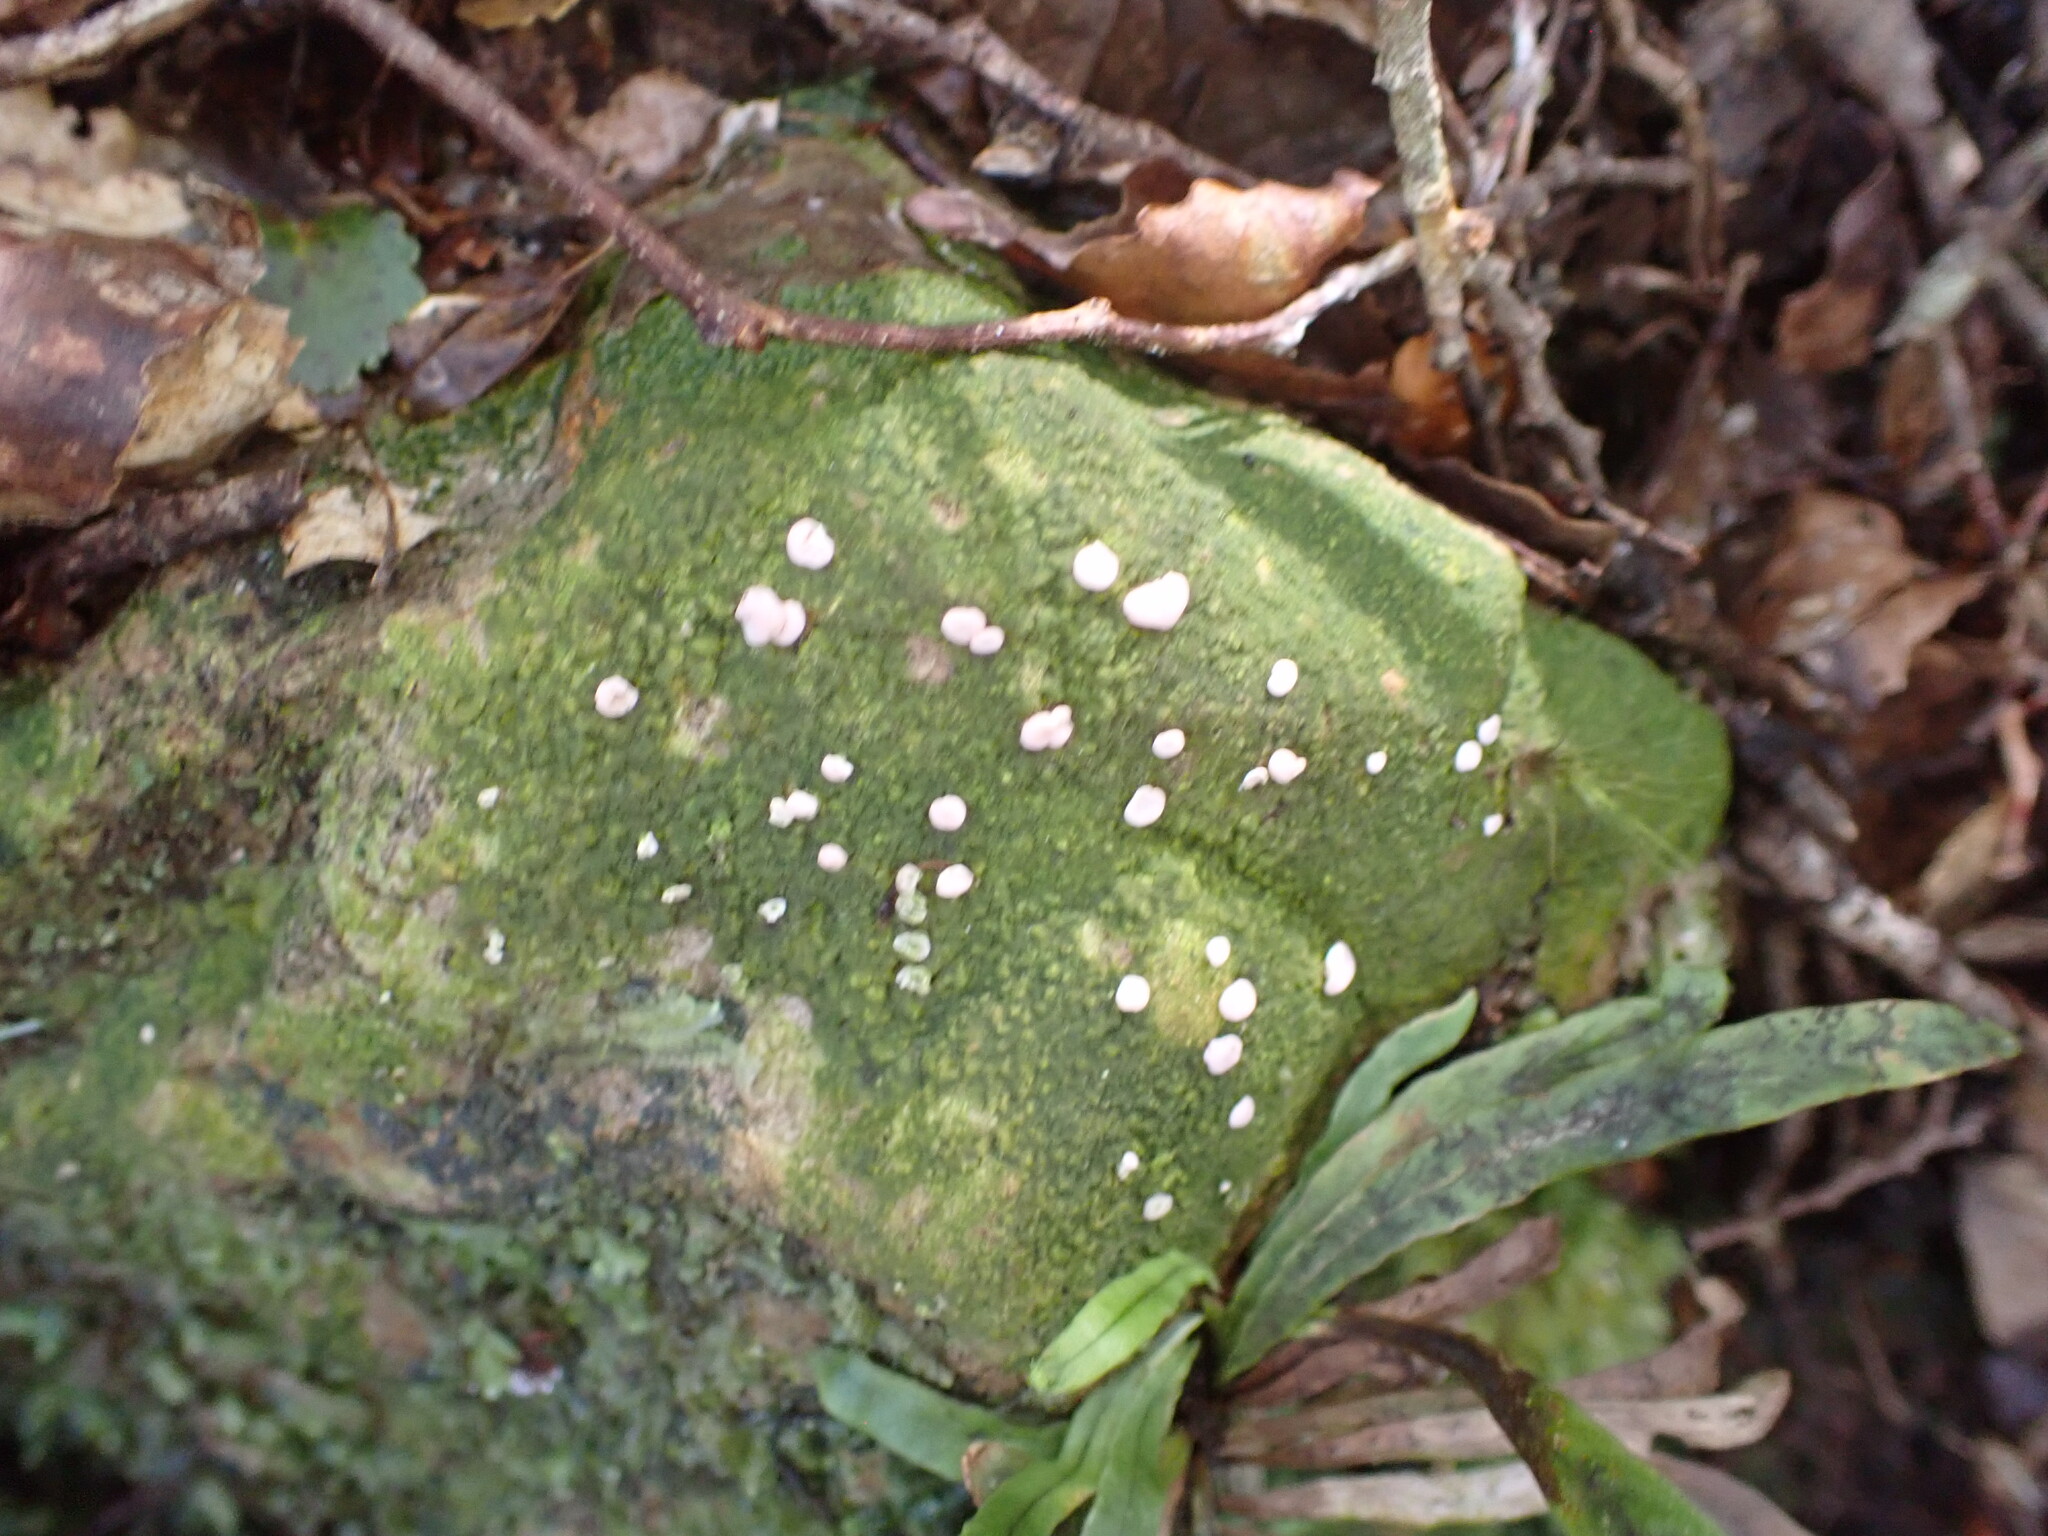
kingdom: Fungi
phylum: Ascomycota
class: Lecanoromycetes
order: Pertusariales
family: Icmadophilaceae
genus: Dibaeis
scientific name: Dibaeis absoluta
